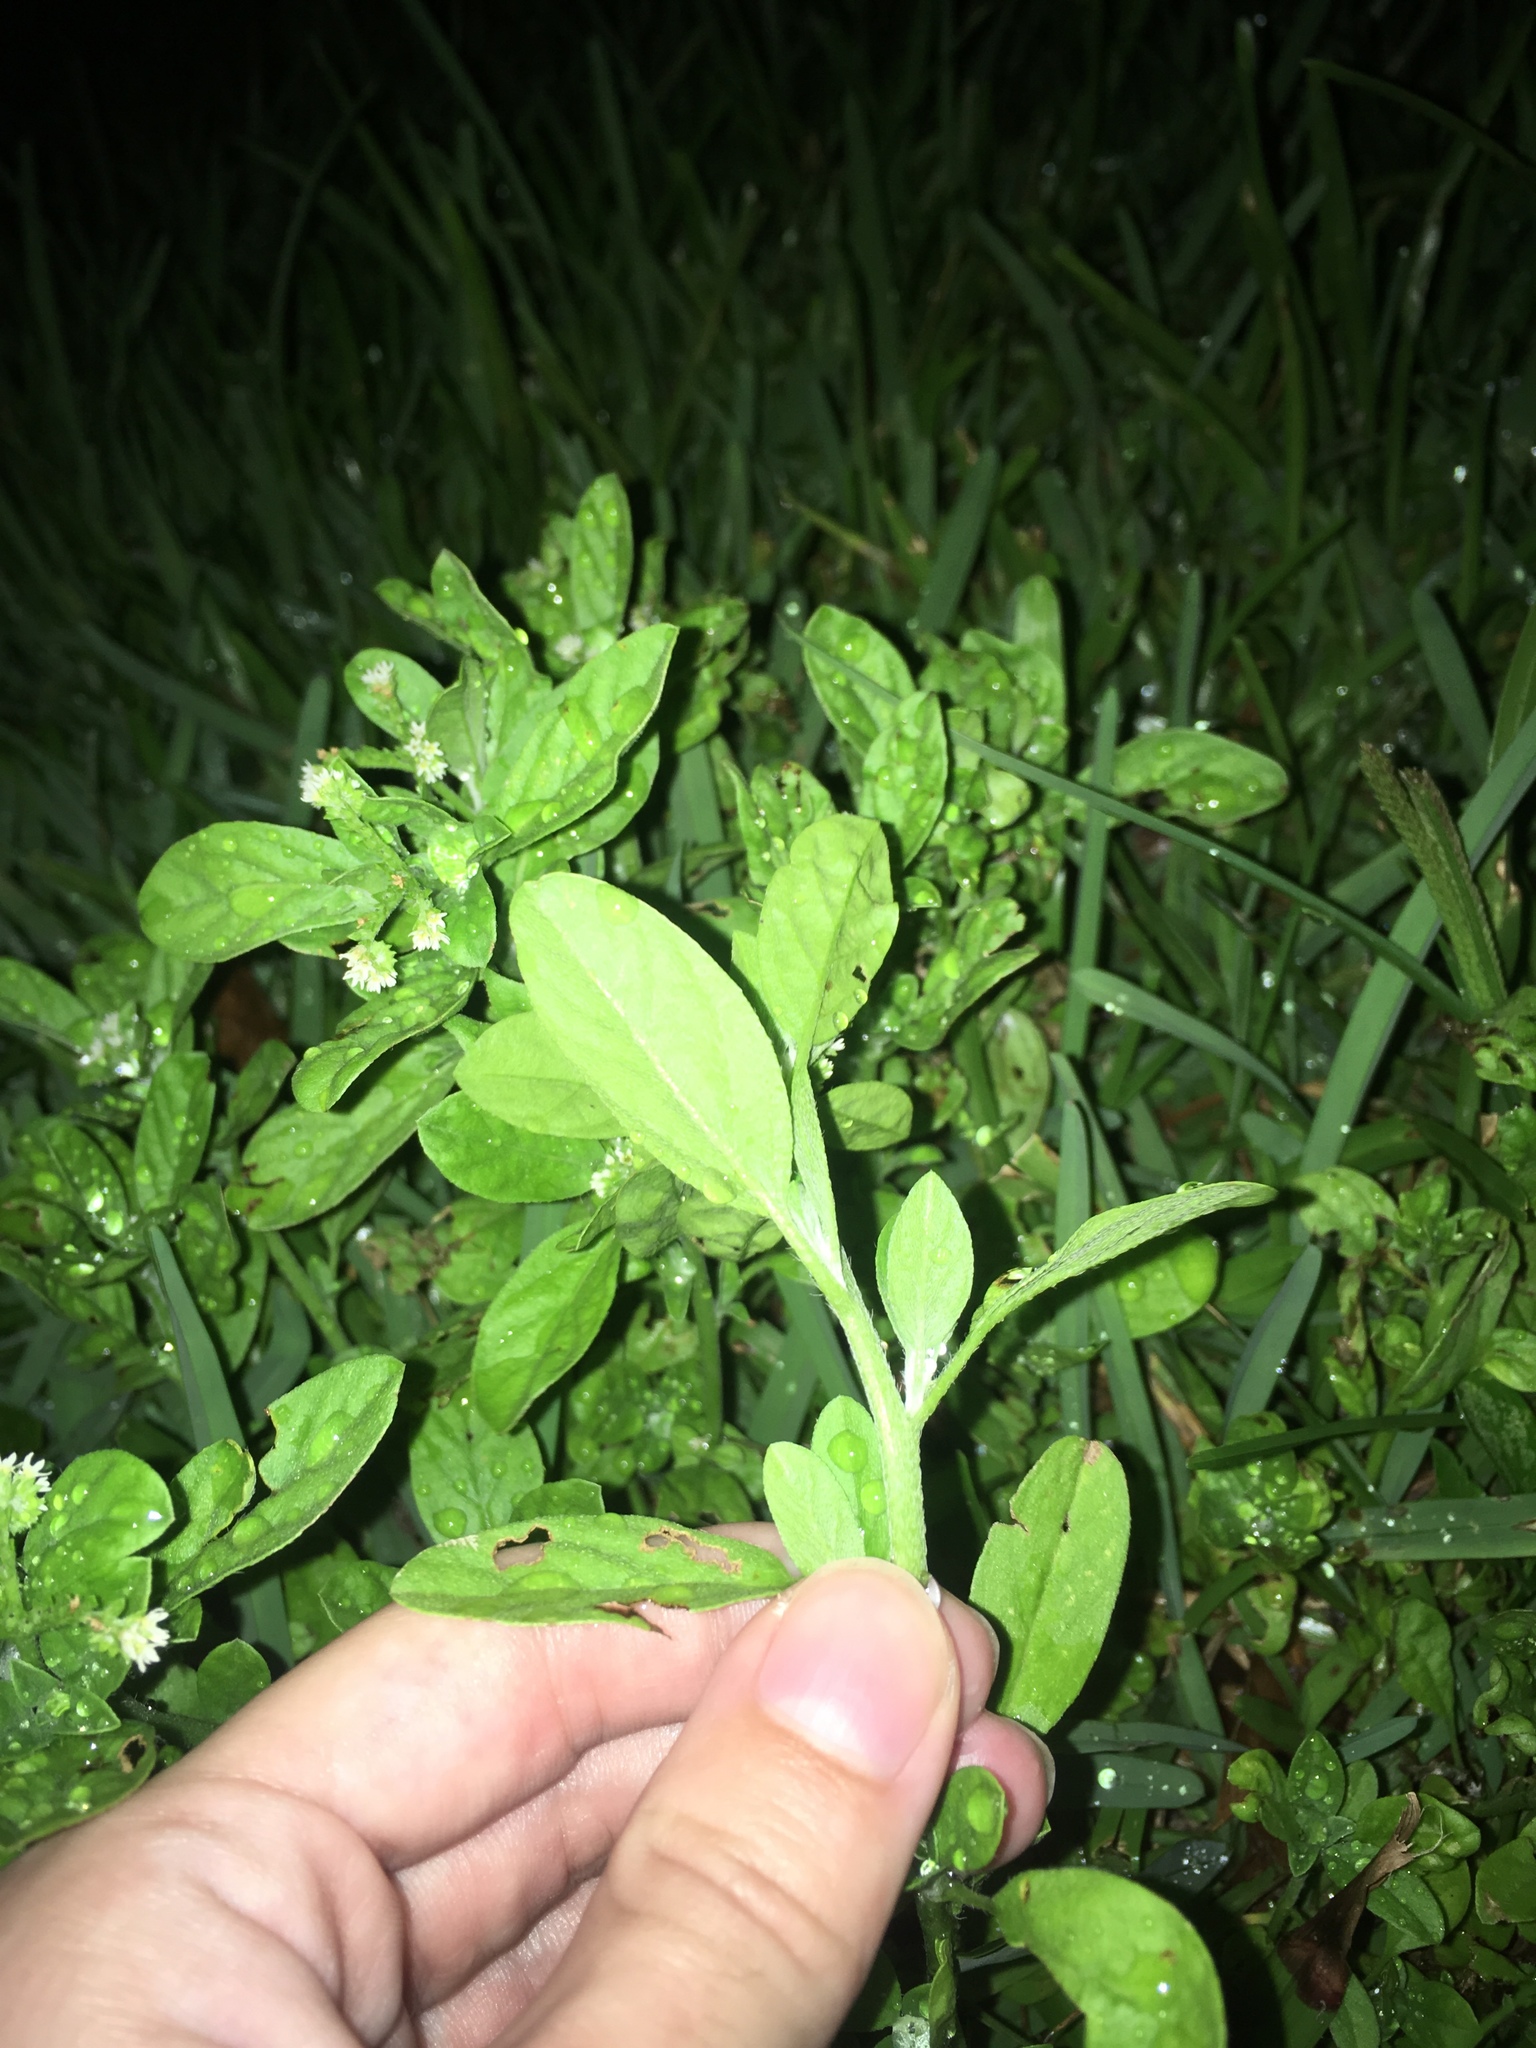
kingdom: Plantae
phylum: Tracheophyta
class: Magnoliopsida
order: Boraginales
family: Heliotropiaceae
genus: Euploca
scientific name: Euploca procumbens
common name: Fourspike heliotrope
